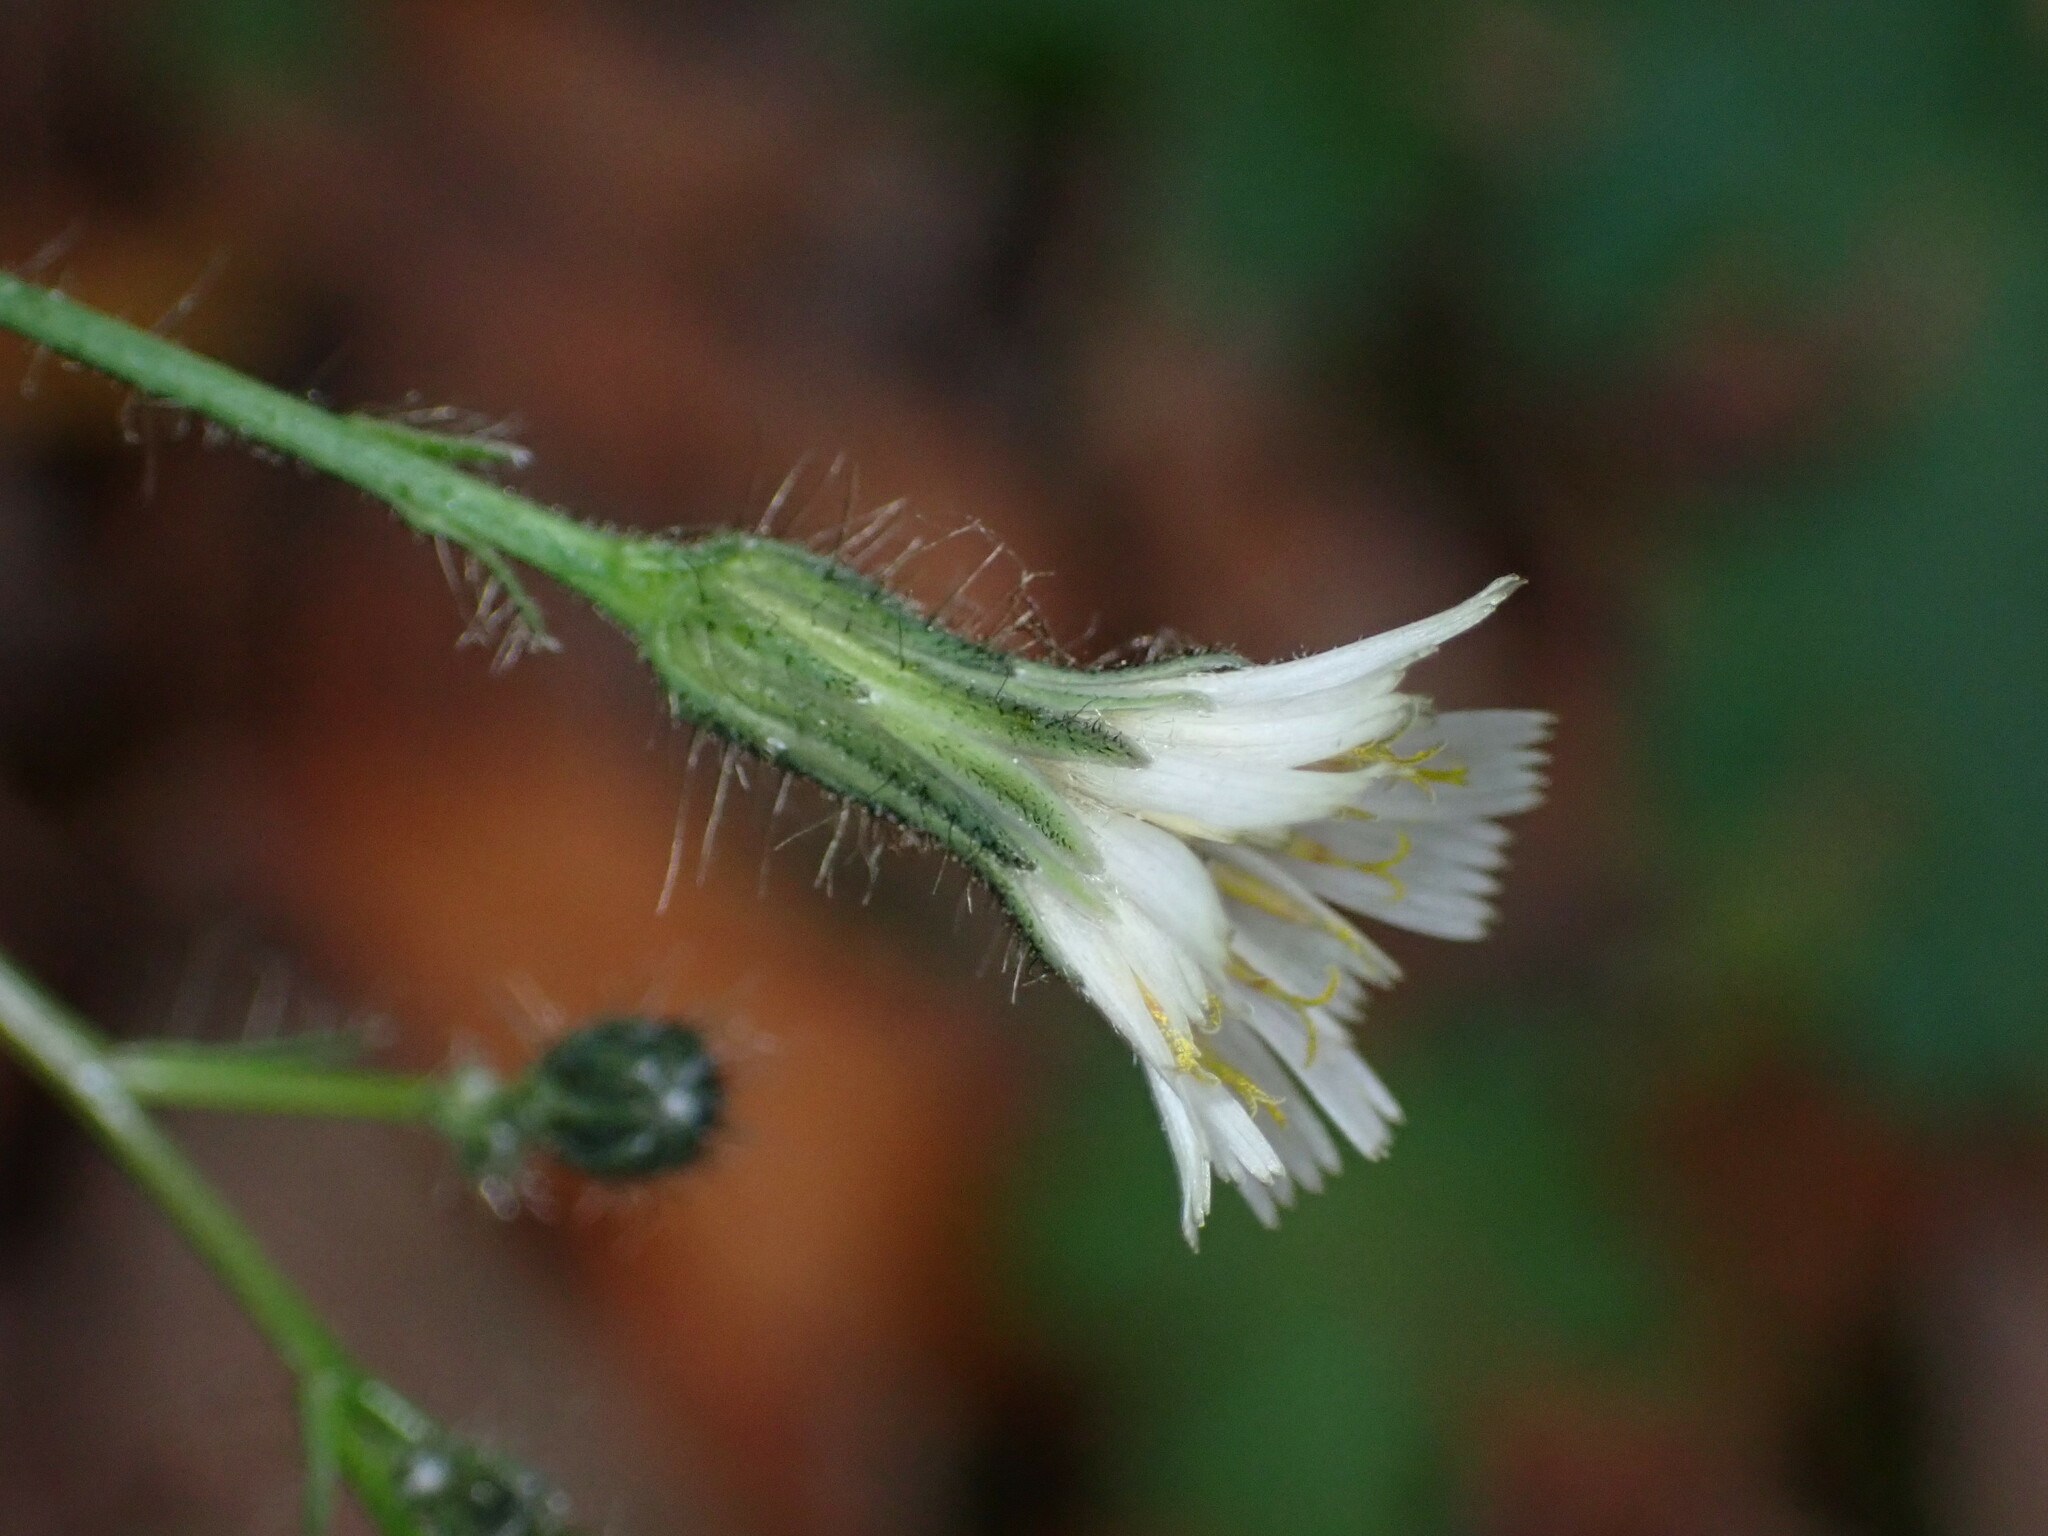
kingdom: Plantae
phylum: Tracheophyta
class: Magnoliopsida
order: Asterales
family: Asteraceae
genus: Hieracium
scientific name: Hieracium albiflorum
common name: White hawkweed
